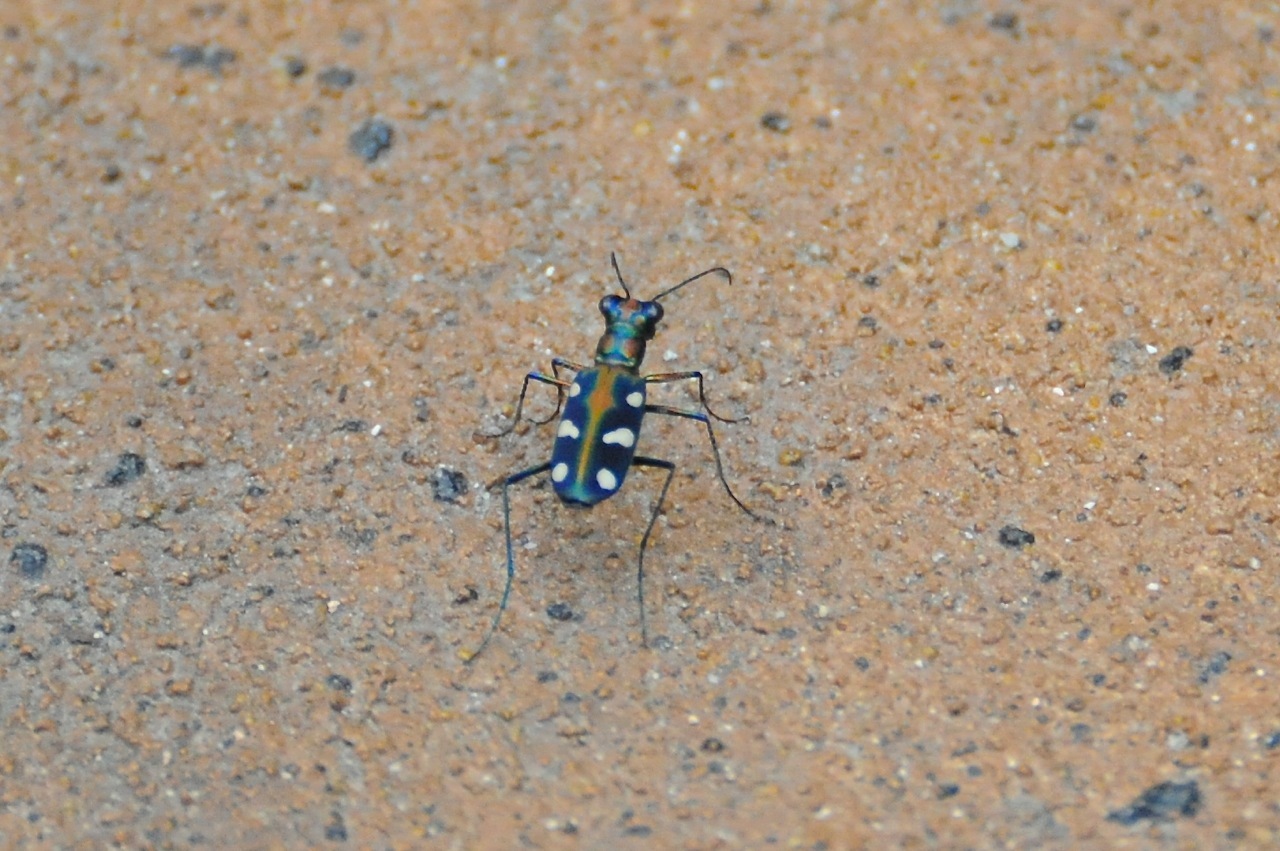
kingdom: Animalia
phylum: Arthropoda
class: Insecta
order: Coleoptera
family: Carabidae
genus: Cicindela
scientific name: Cicindela aurulenta
